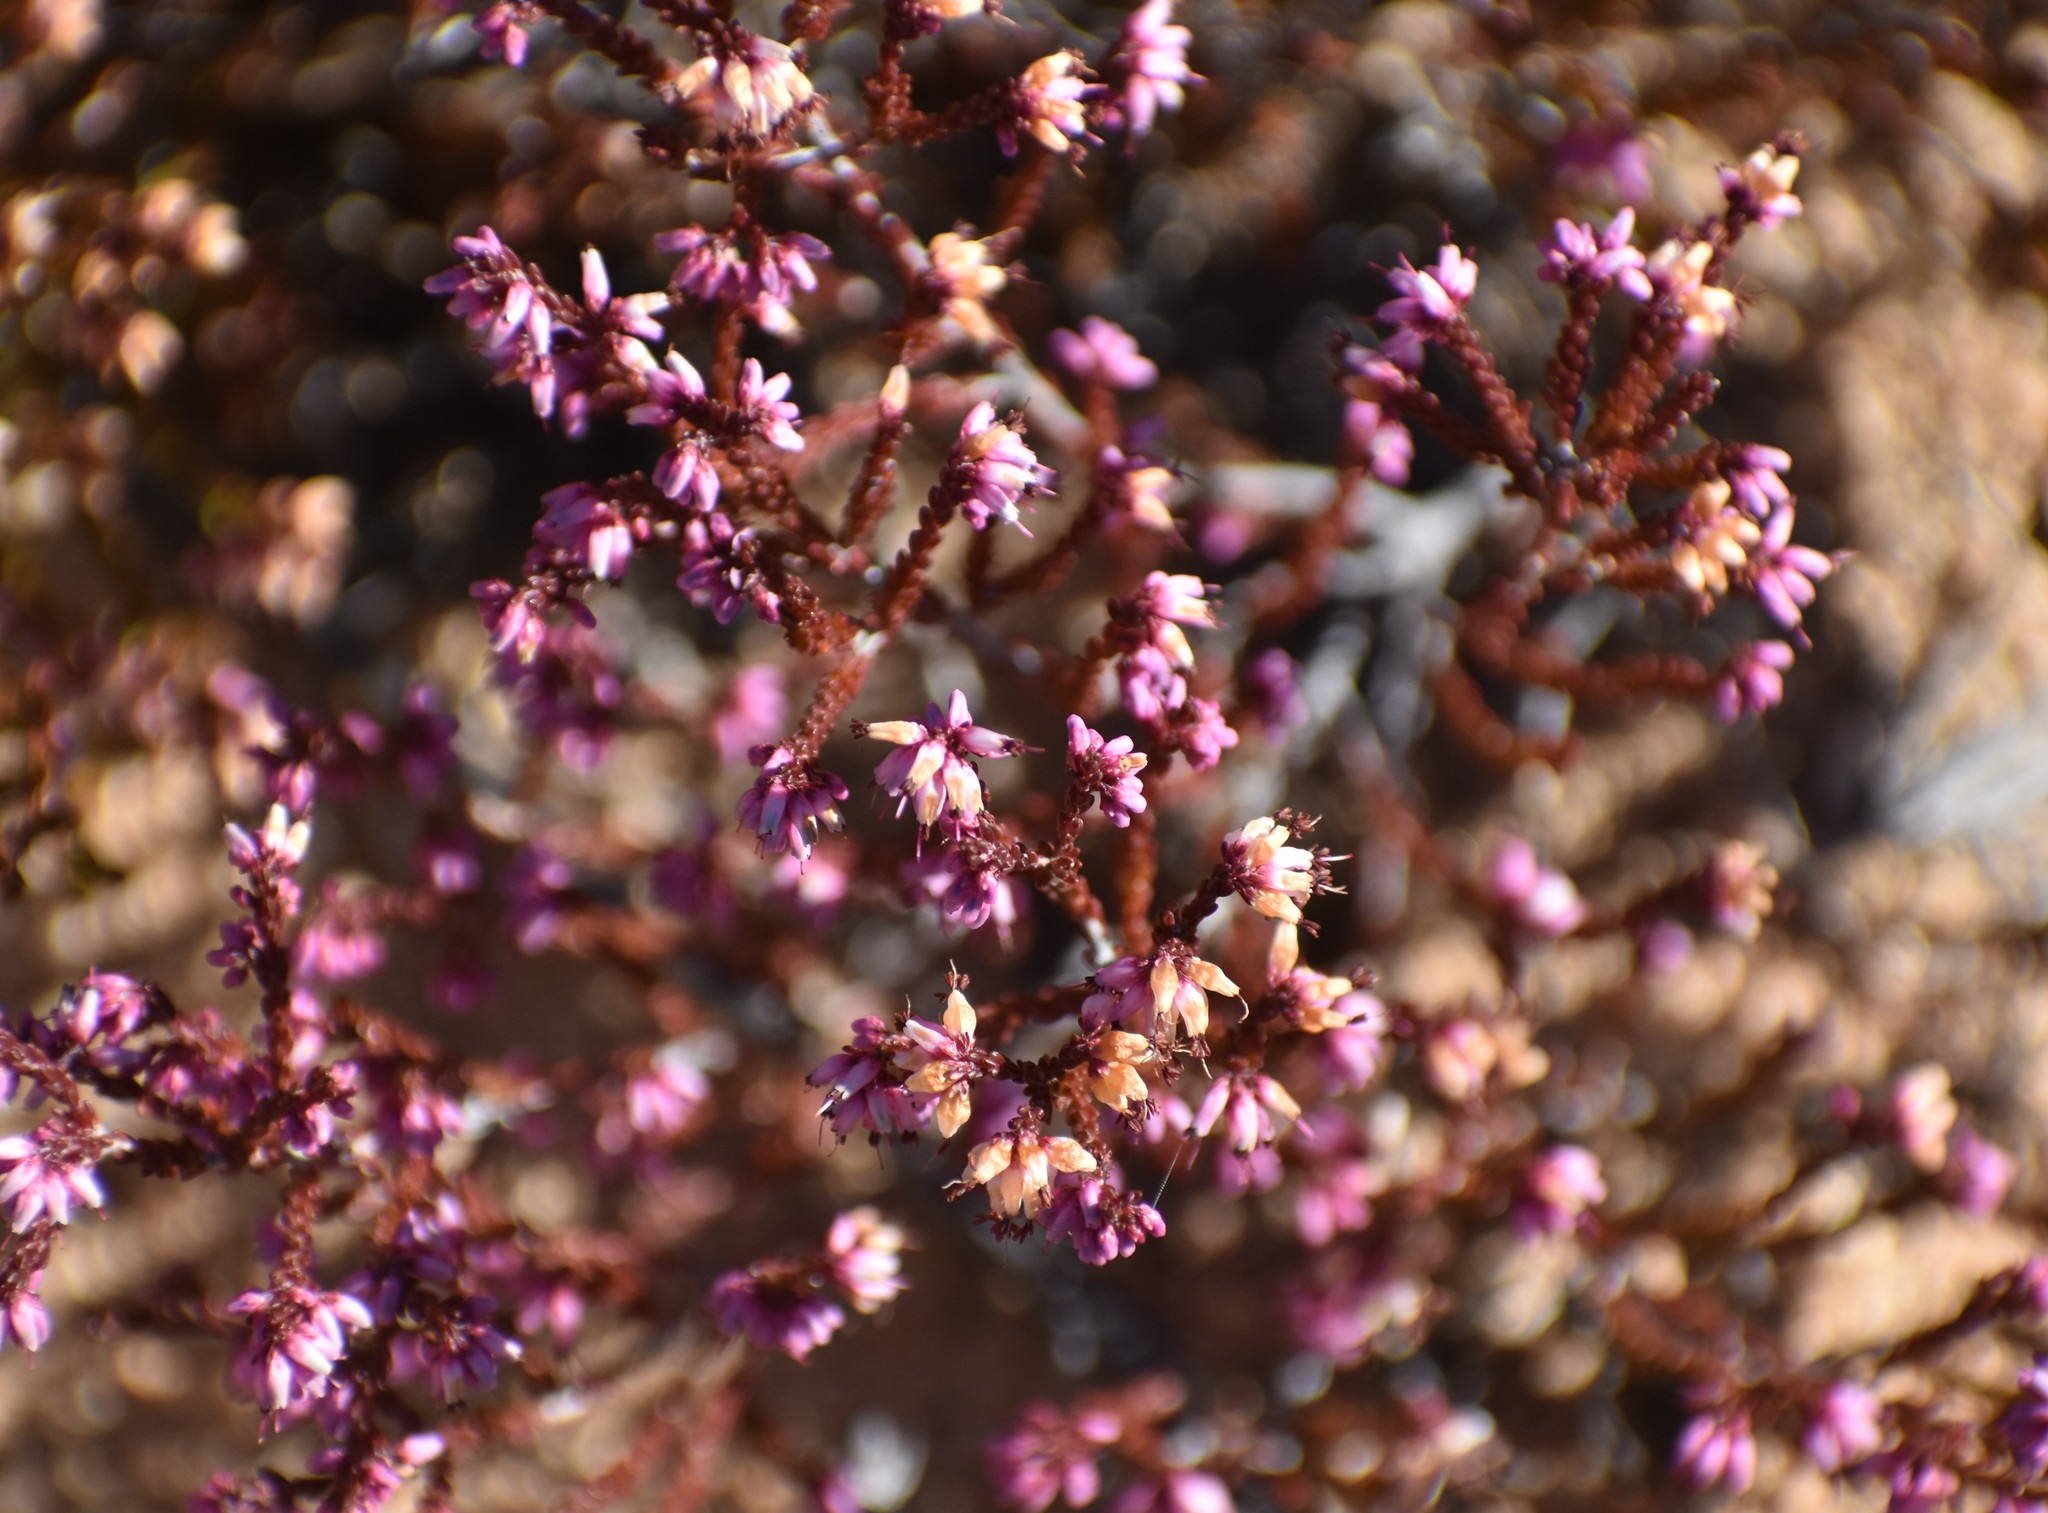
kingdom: Plantae
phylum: Tracheophyta
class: Magnoliopsida
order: Ericales
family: Ericaceae
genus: Erica
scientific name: Erica rosacea
